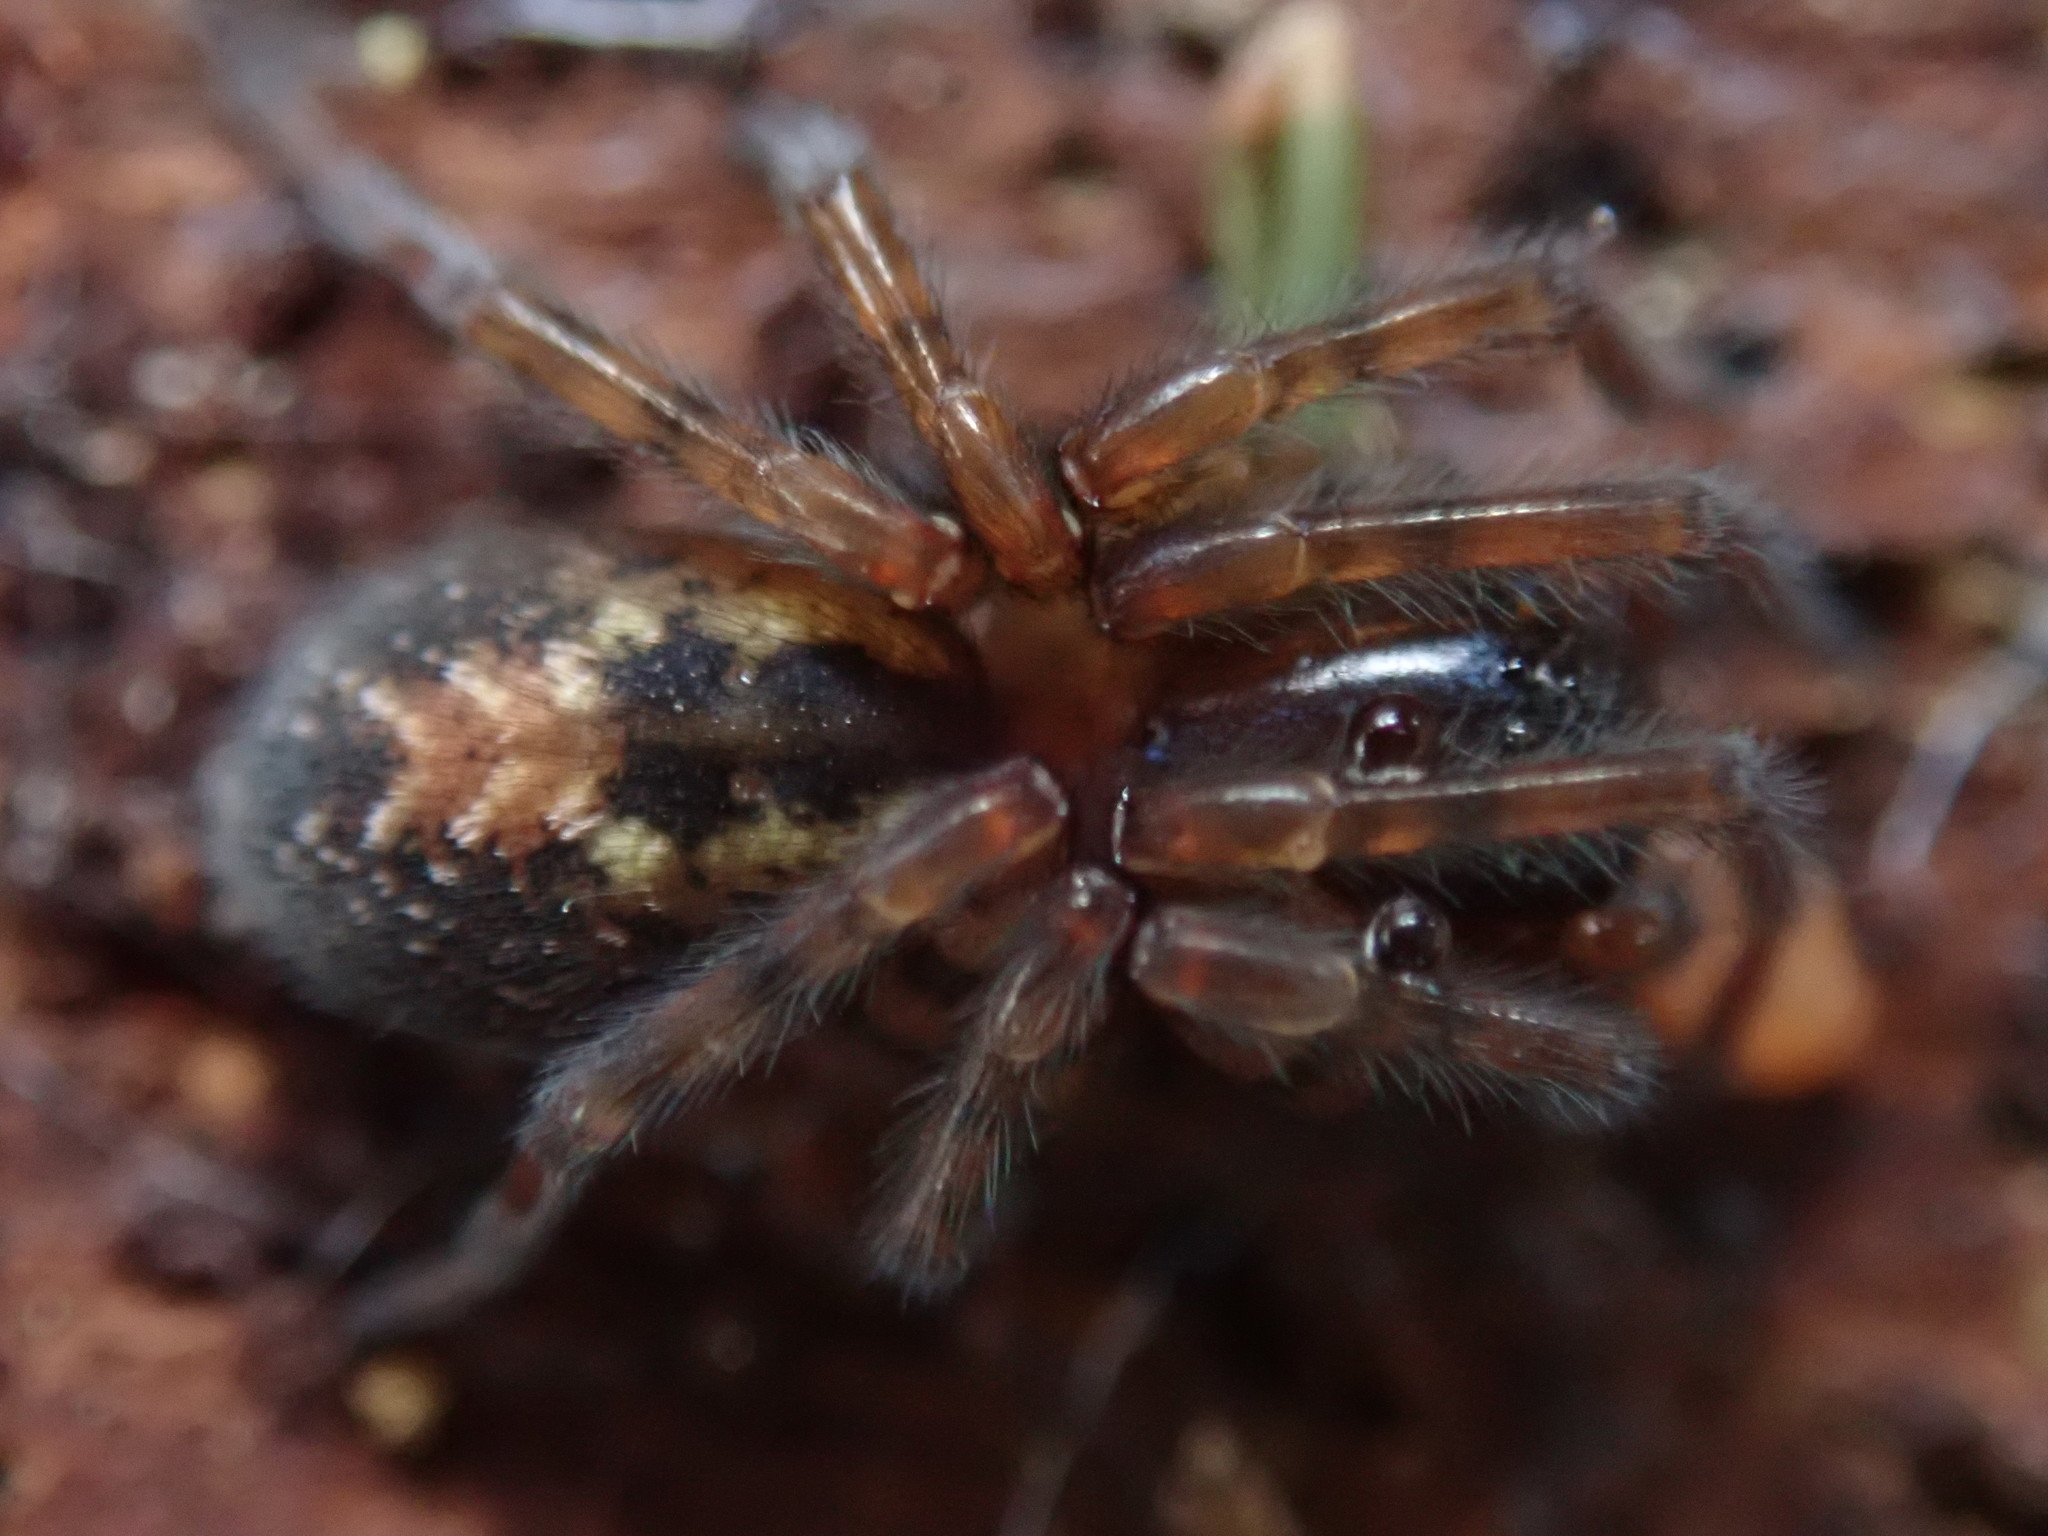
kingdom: Animalia
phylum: Arthropoda
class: Arachnida
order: Araneae
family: Amaurobiidae
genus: Amaurobius
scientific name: Amaurobius fenestralis
